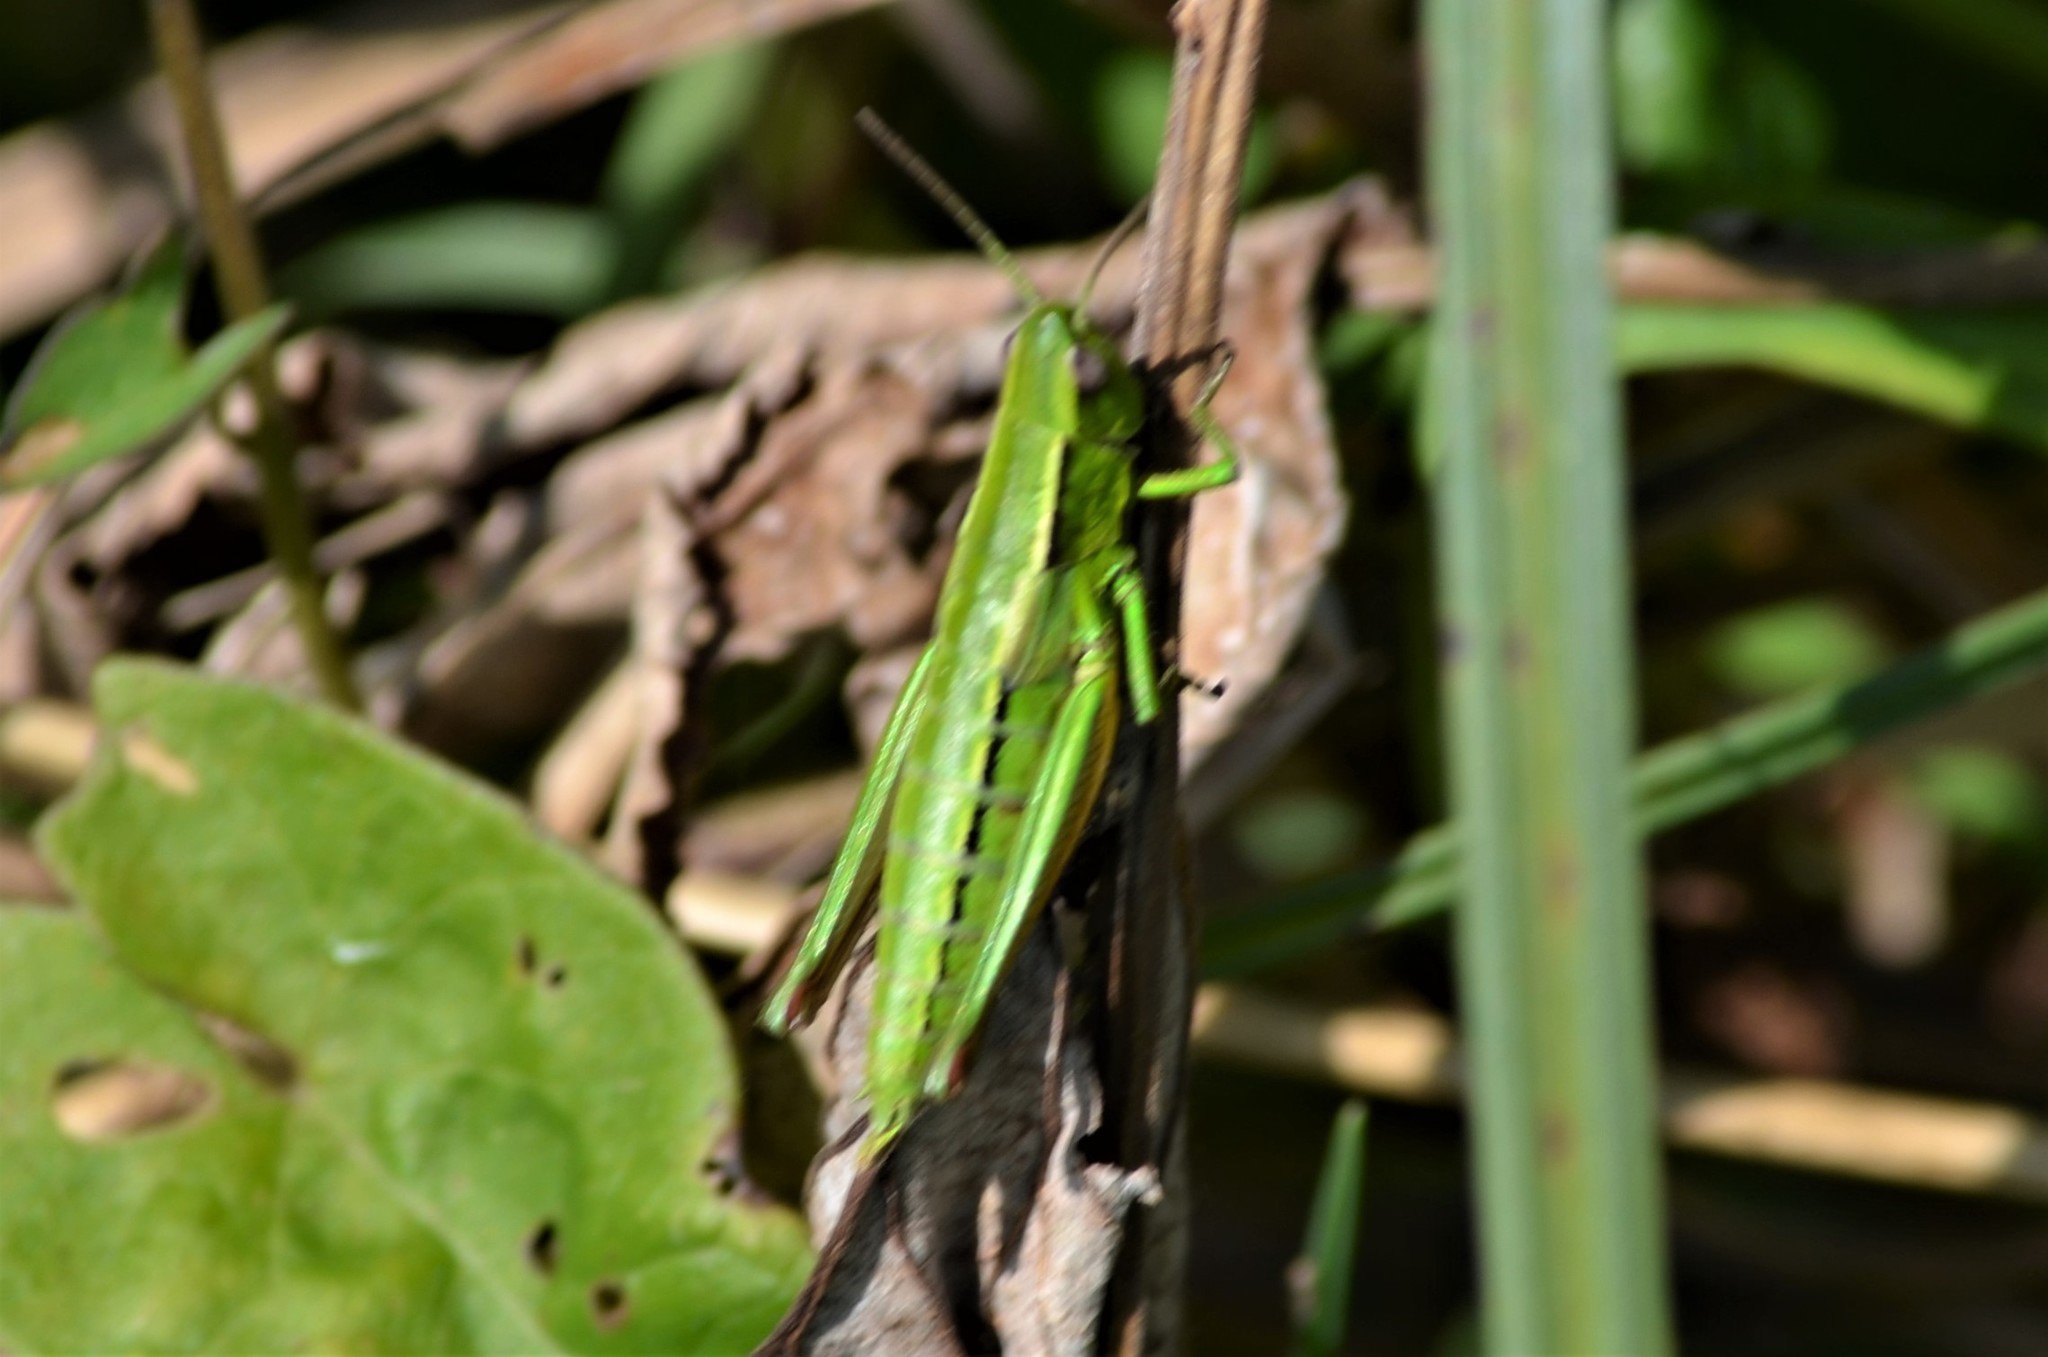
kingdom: Animalia
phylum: Arthropoda
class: Insecta
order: Orthoptera
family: Acrididae
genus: Euthystira
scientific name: Euthystira brachyptera
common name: Small gold grasshopper
